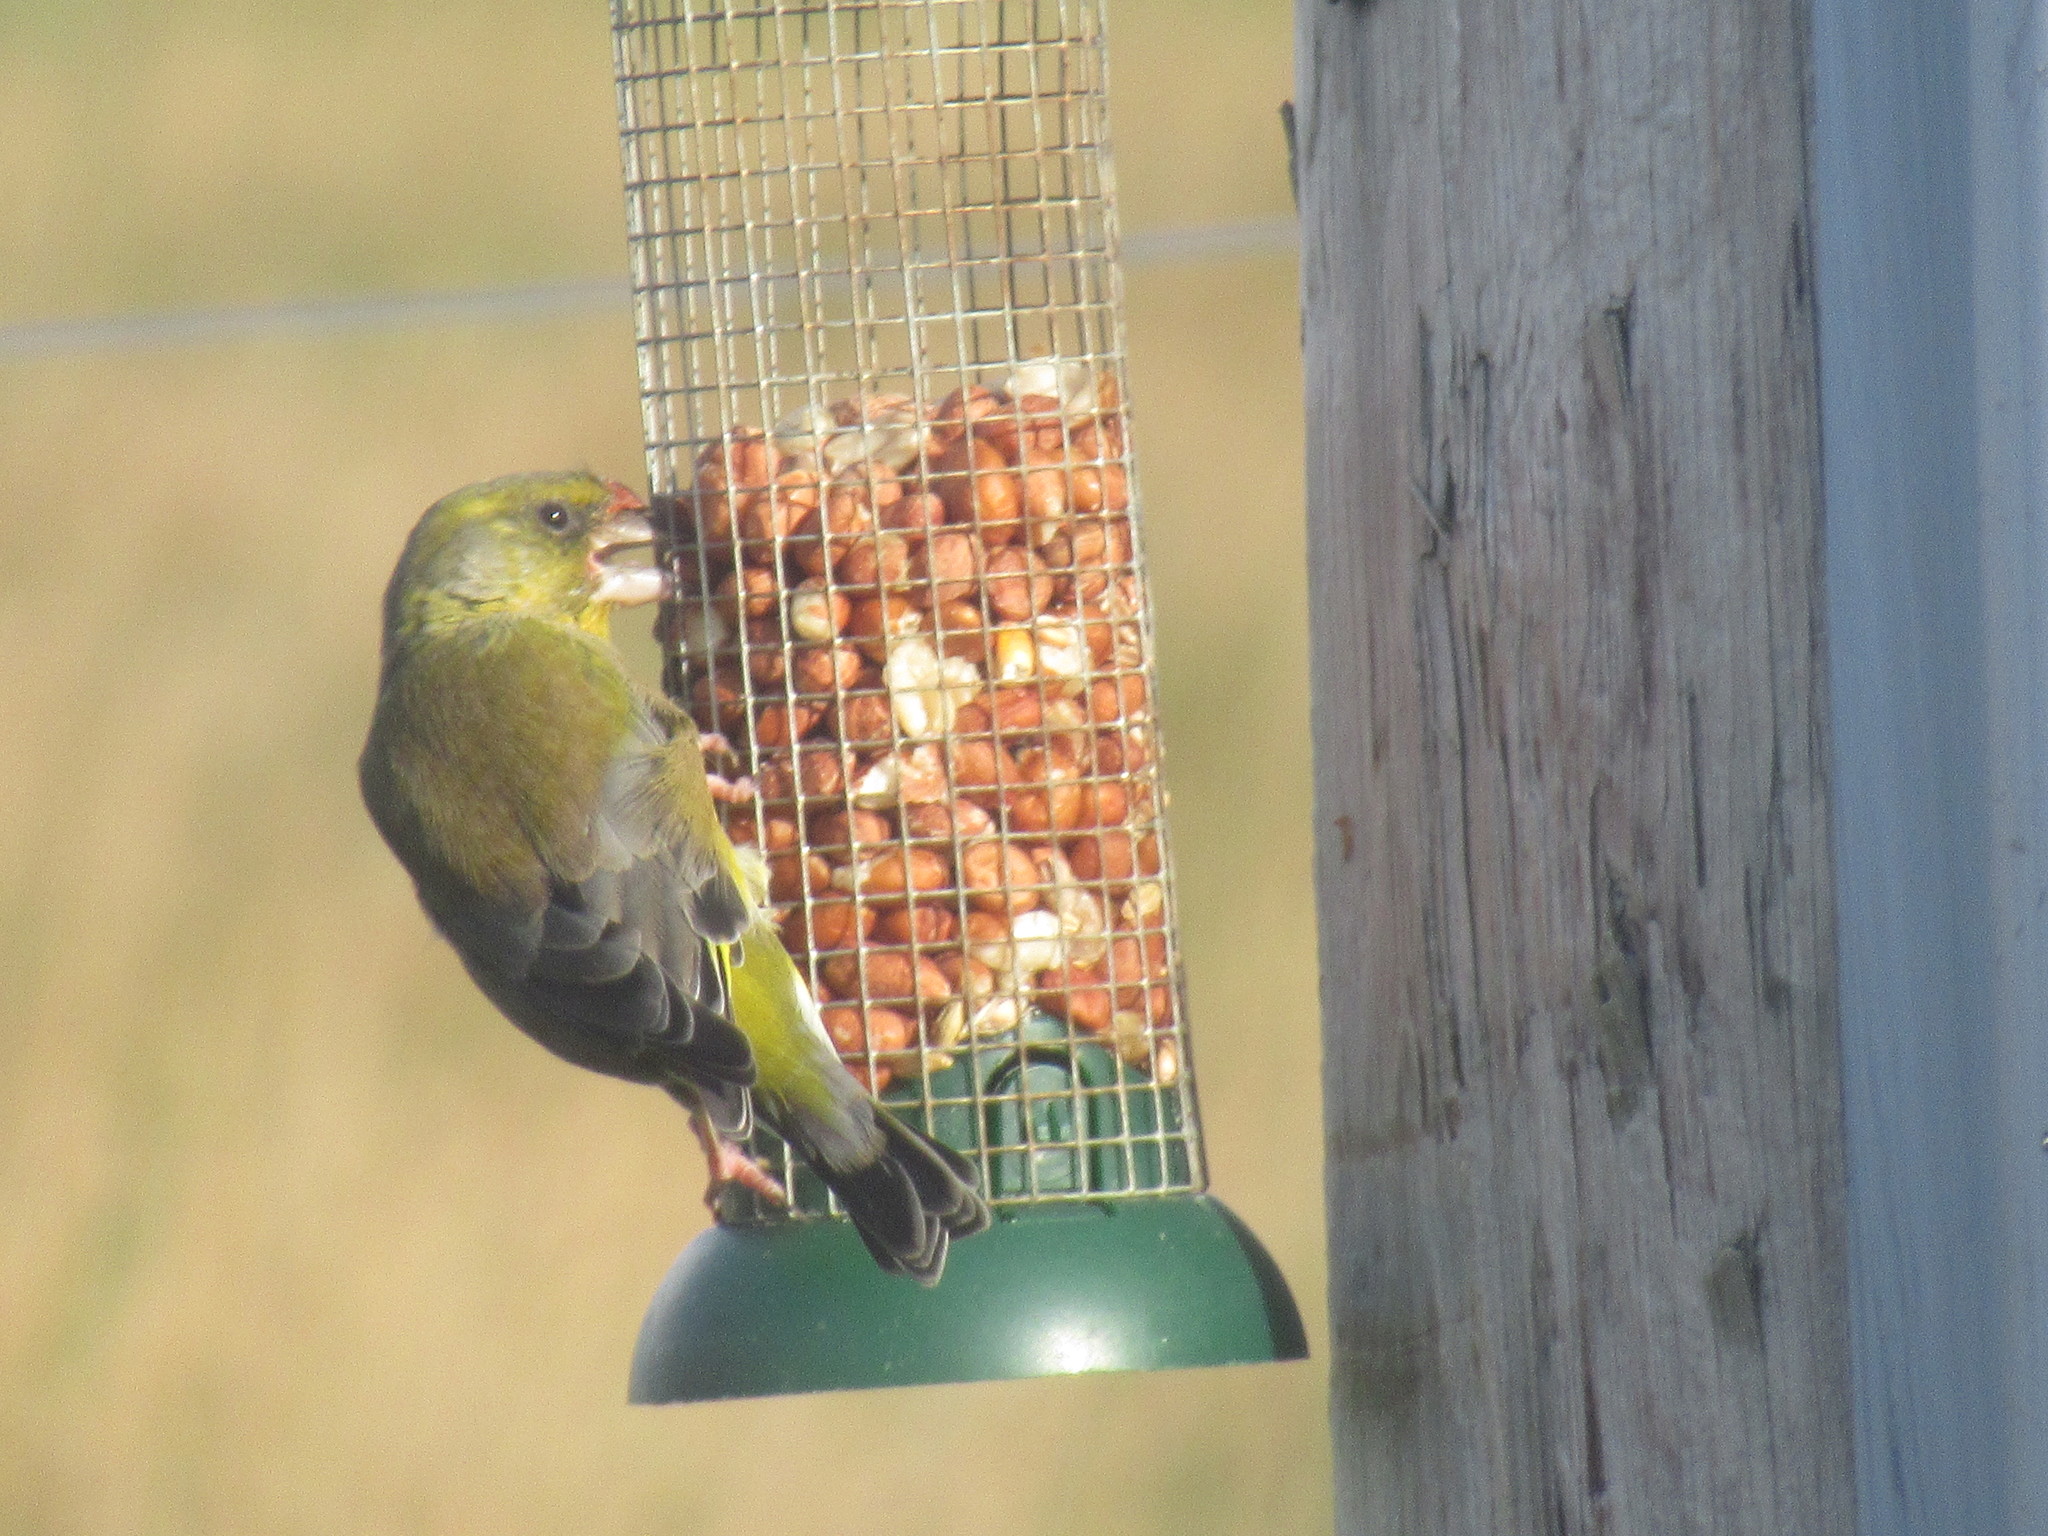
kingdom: Plantae
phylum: Tracheophyta
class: Liliopsida
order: Poales
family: Poaceae
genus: Chloris
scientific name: Chloris chloris
